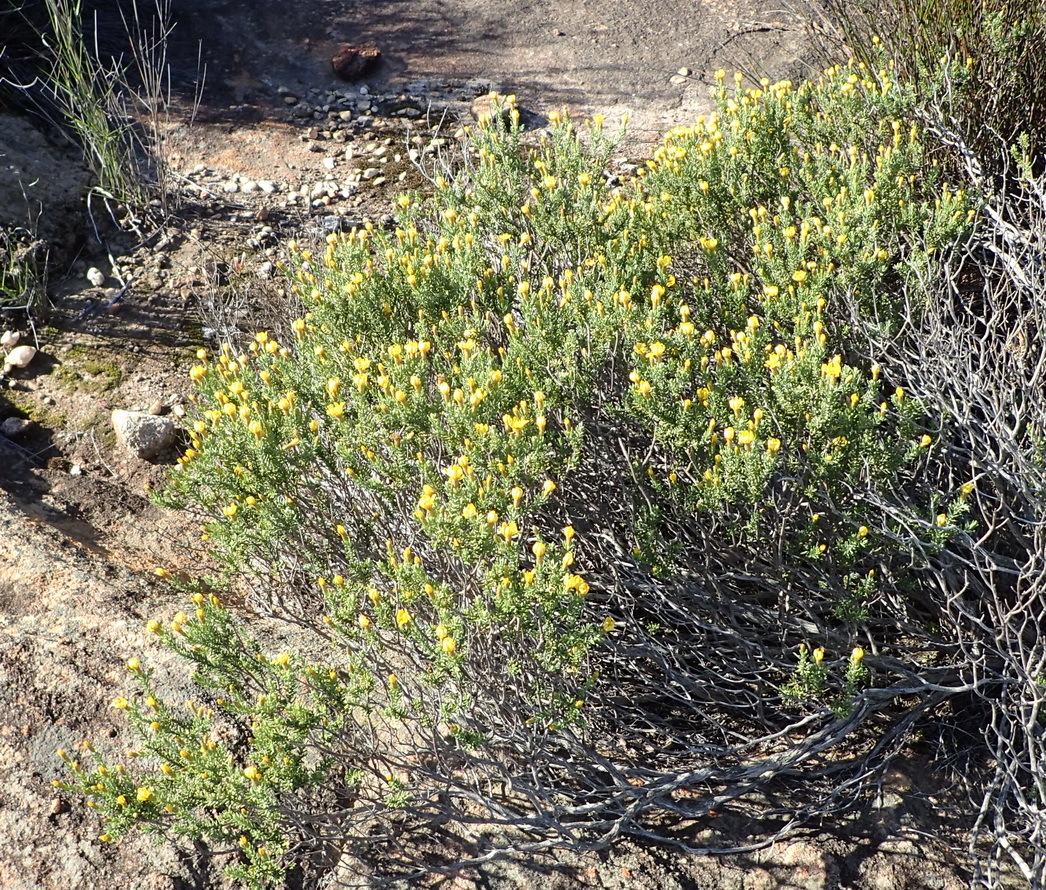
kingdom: Plantae
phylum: Tracheophyta
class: Magnoliopsida
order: Asterales
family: Asteraceae
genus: Oedera
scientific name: Oedera sedifolia
